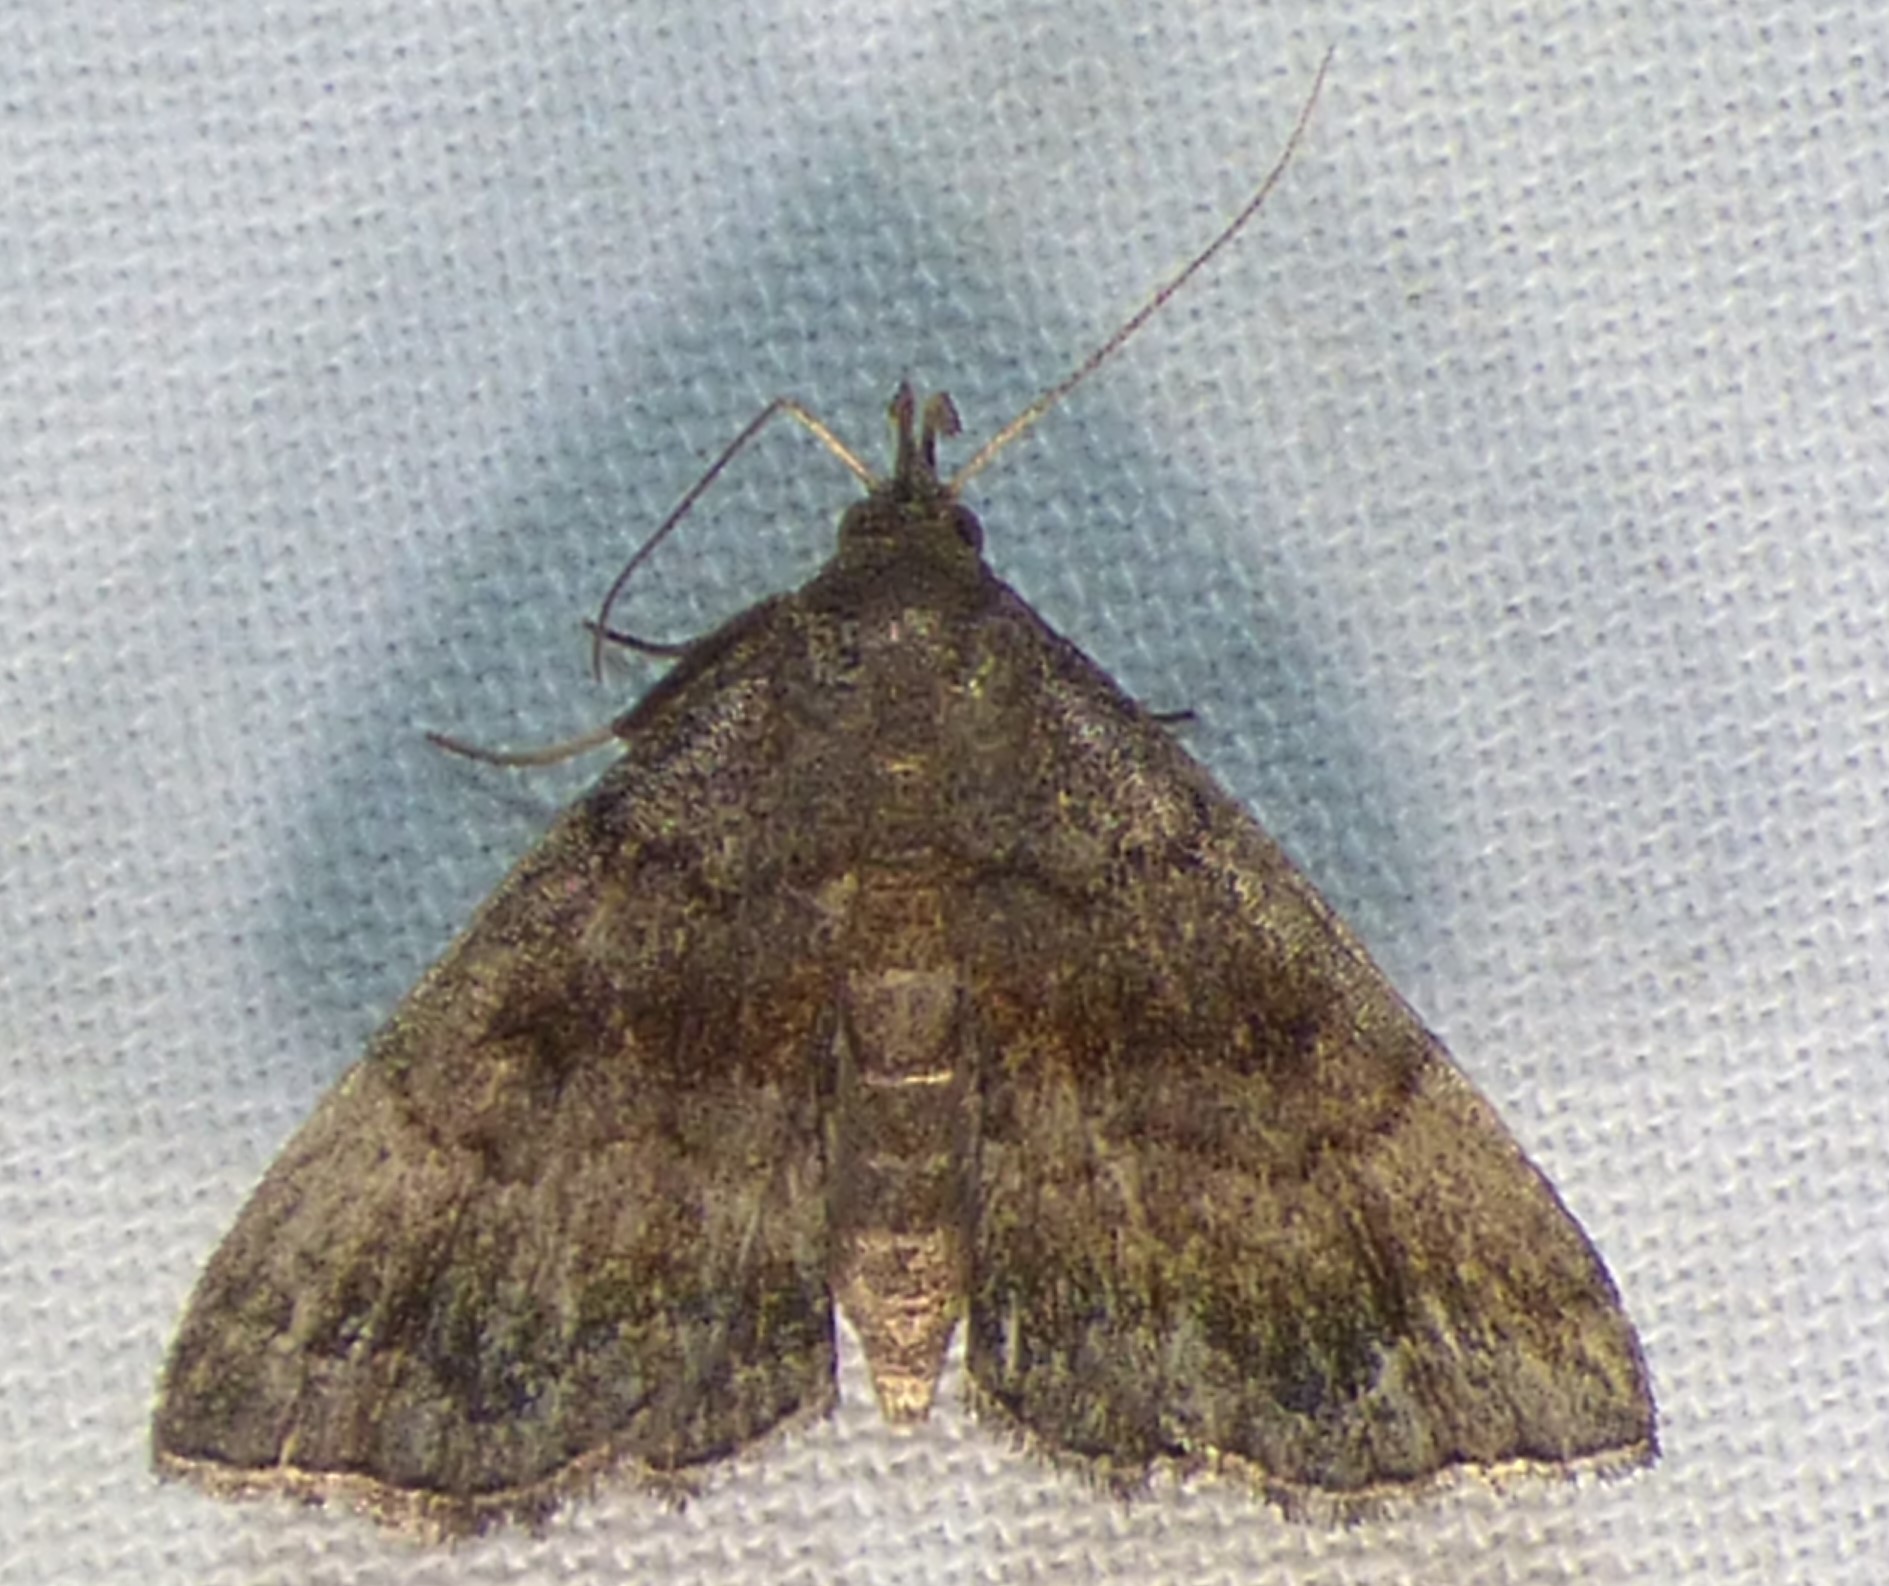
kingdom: Animalia
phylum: Arthropoda
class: Insecta
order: Lepidoptera
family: Erebidae
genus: Phalaenostola
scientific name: Phalaenostola larentioides
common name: Black-banded owlet
